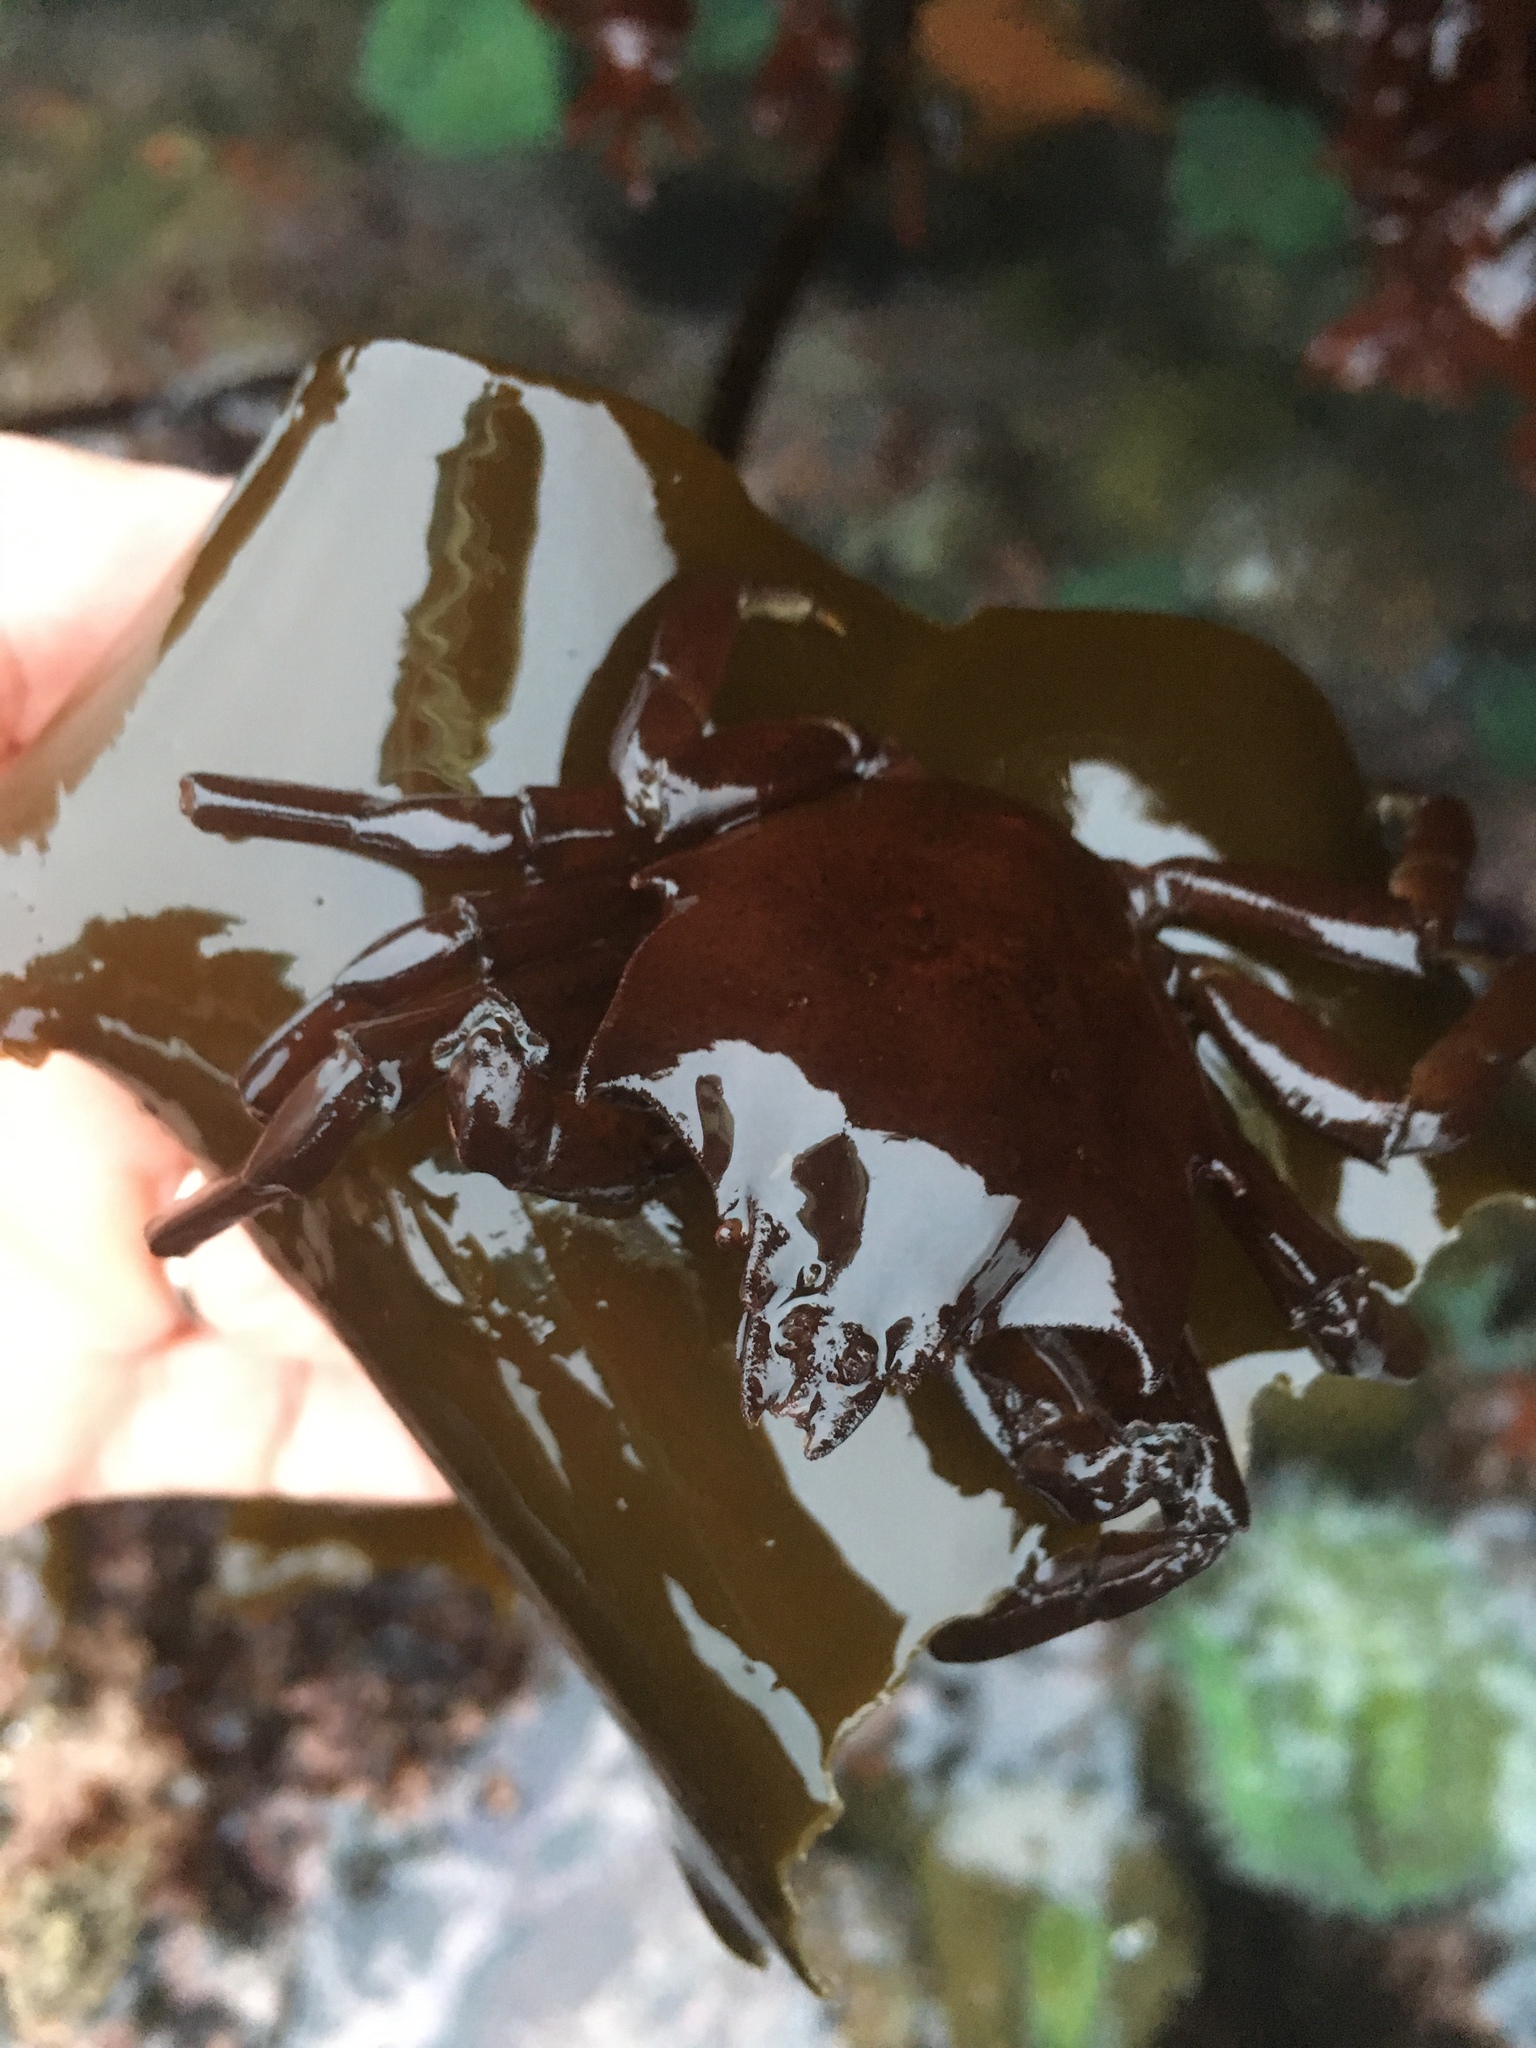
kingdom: Animalia
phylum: Arthropoda
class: Malacostraca
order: Decapoda
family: Epialtidae
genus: Pugettia
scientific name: Pugettia producta
